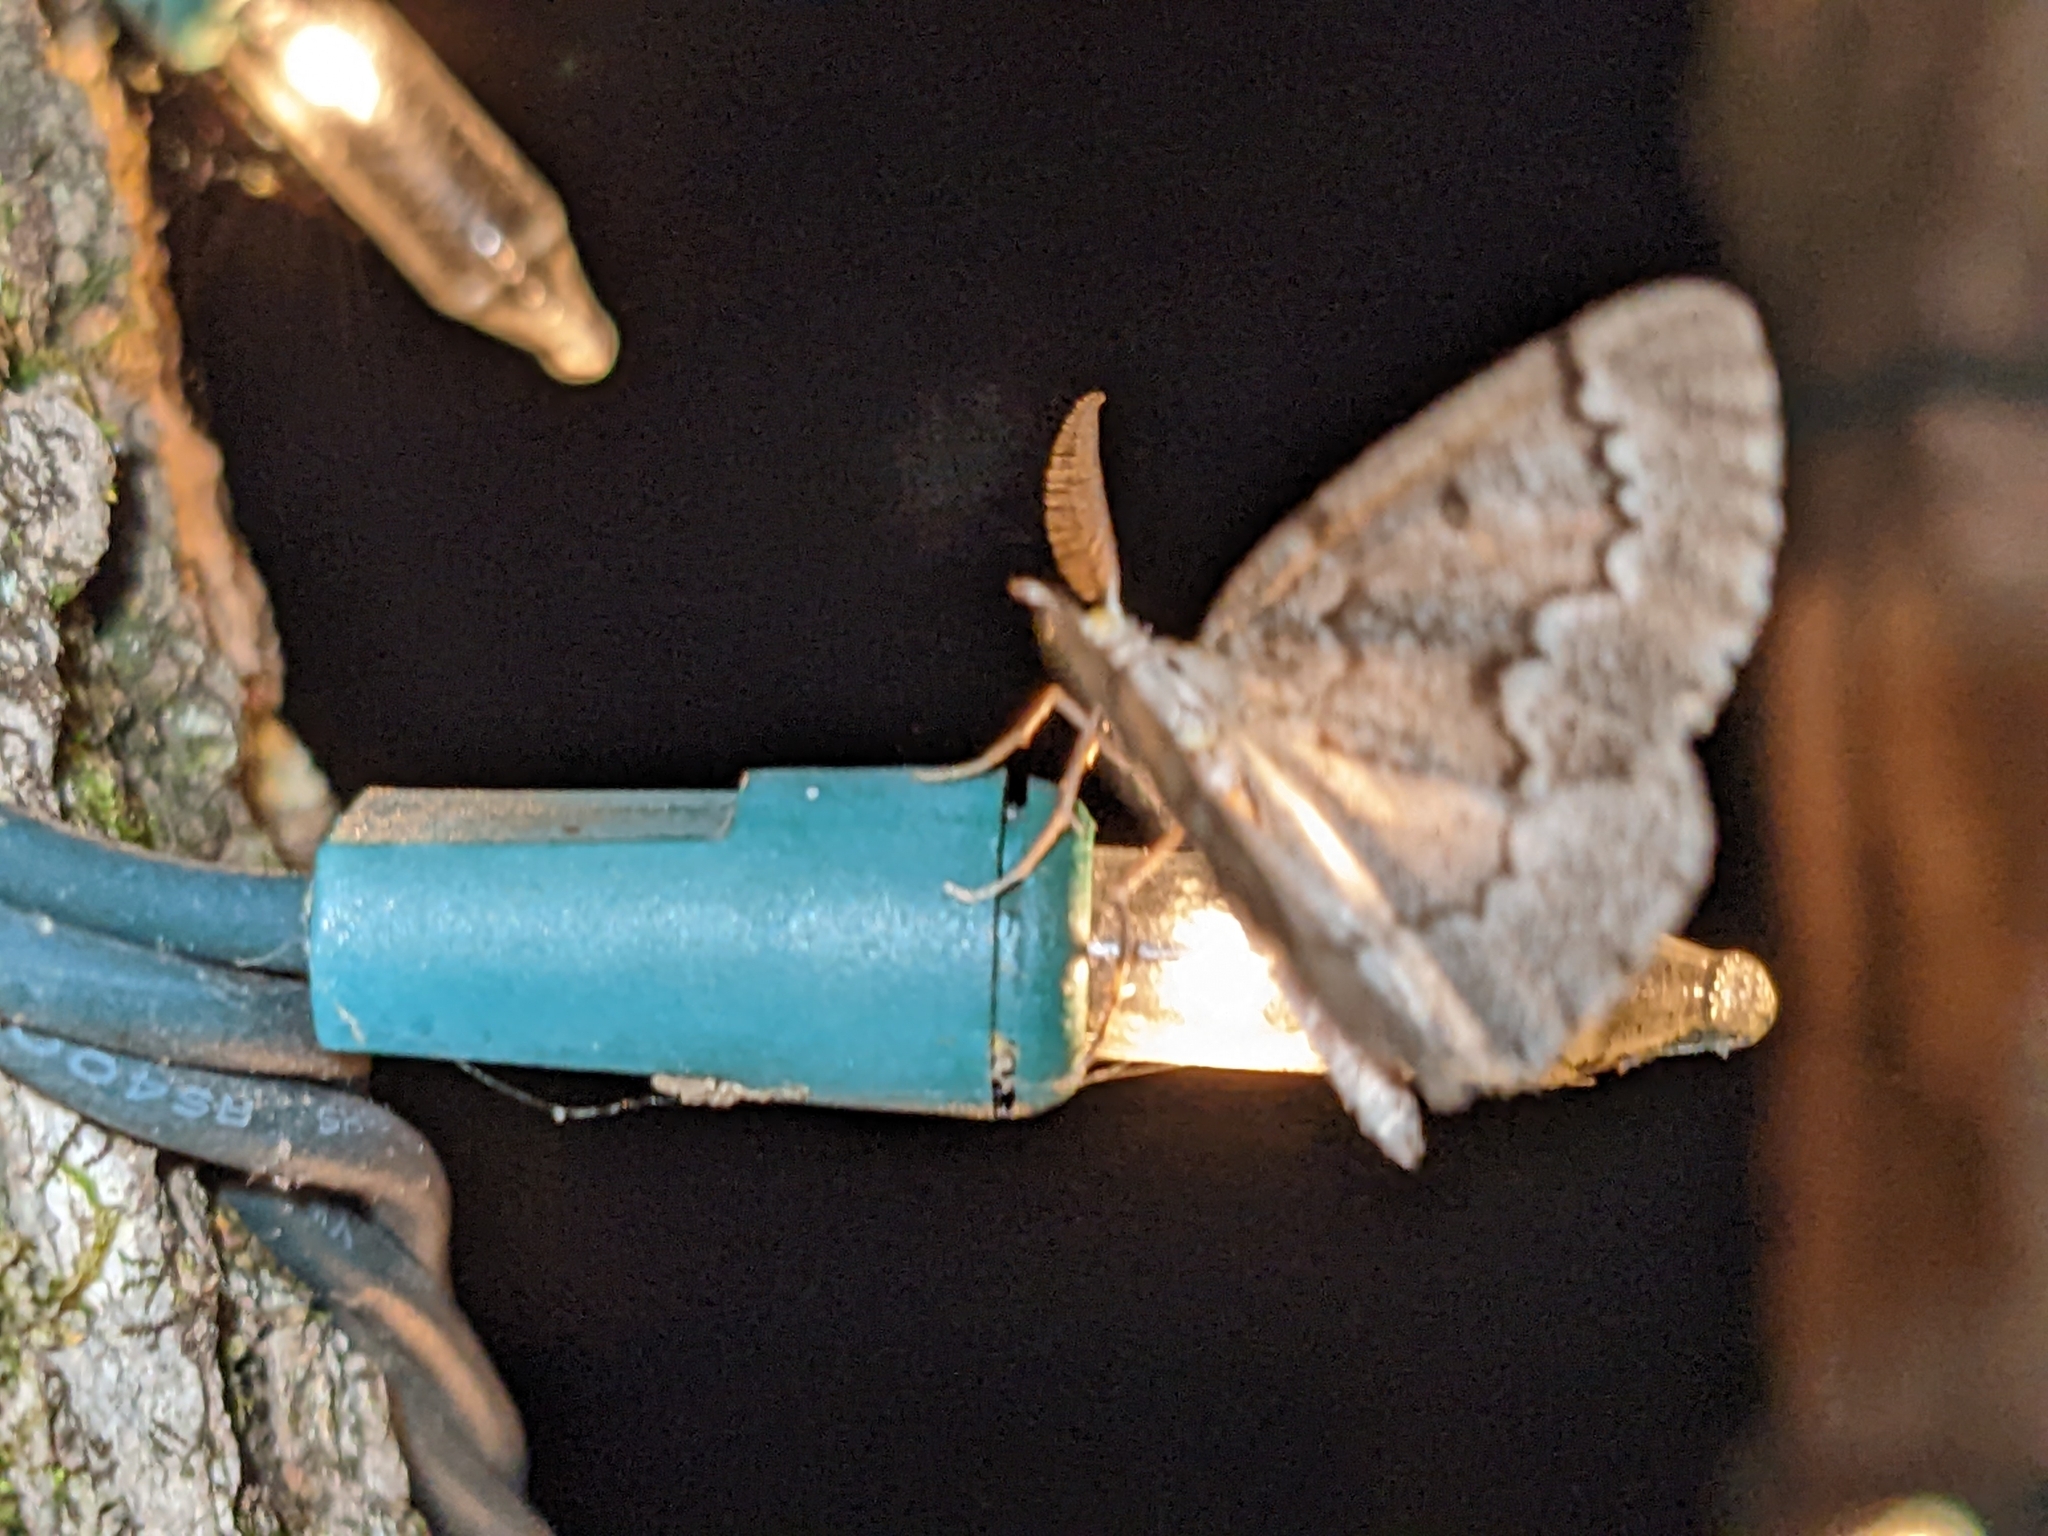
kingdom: Animalia
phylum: Arthropoda
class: Insecta
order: Lepidoptera
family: Geometridae
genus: Nepytia
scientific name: Nepytia canosaria
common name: False hemlock looper
